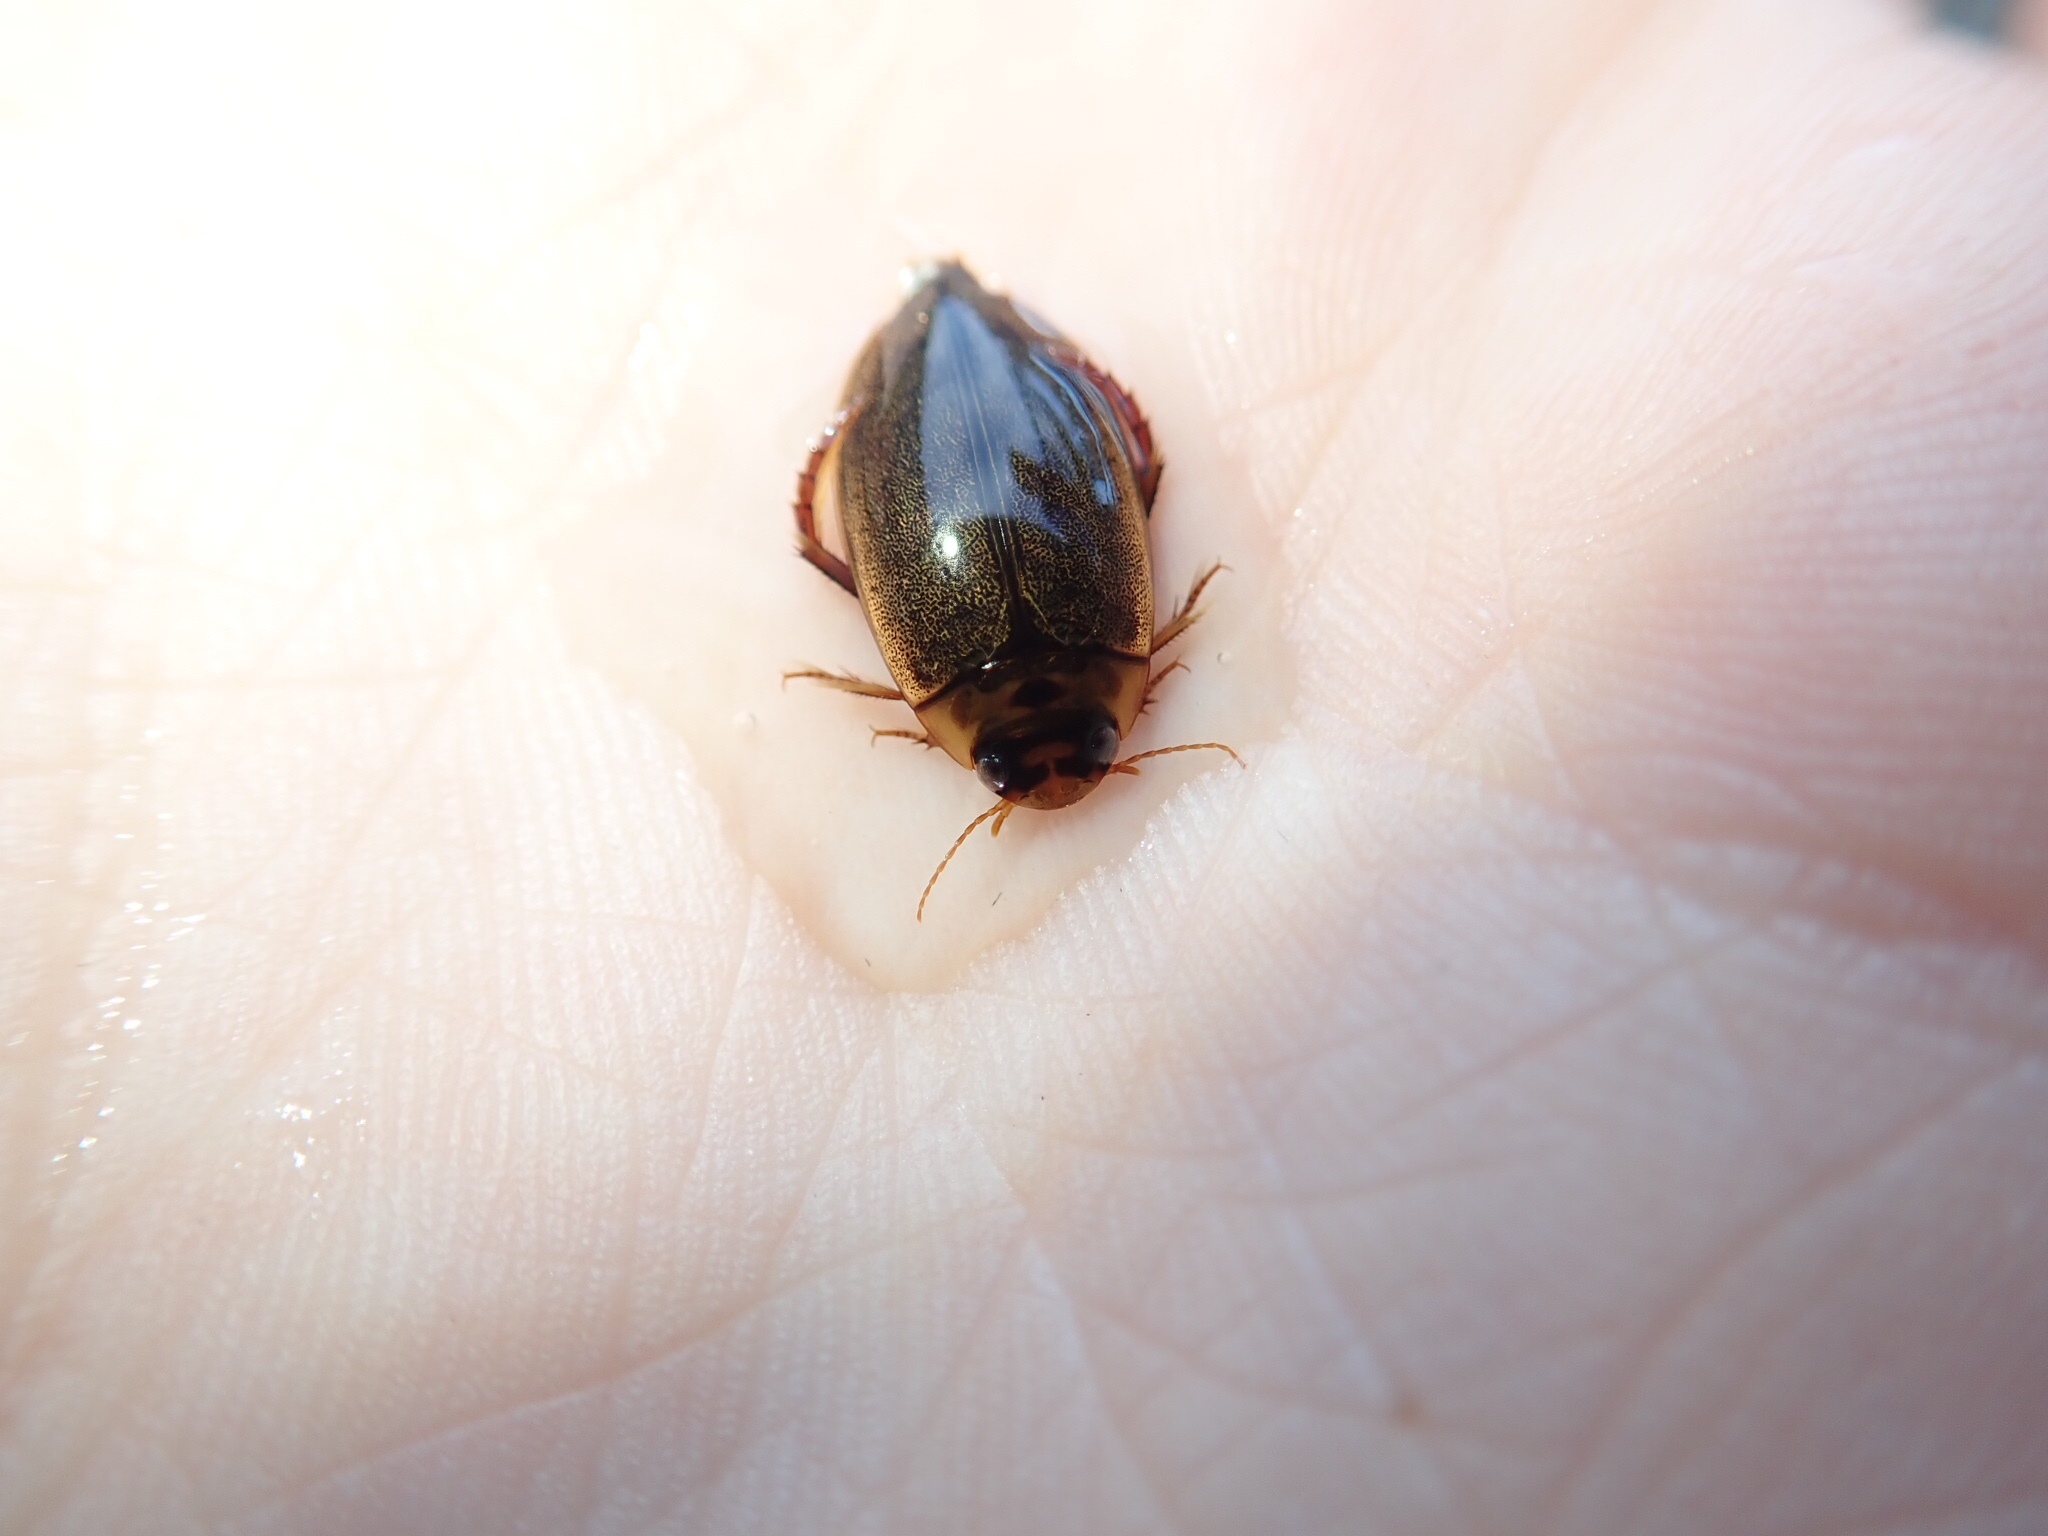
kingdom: Animalia
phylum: Arthropoda
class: Insecta
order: Coleoptera
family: Dytiscidae
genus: Rhantus
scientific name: Rhantus suturalis
